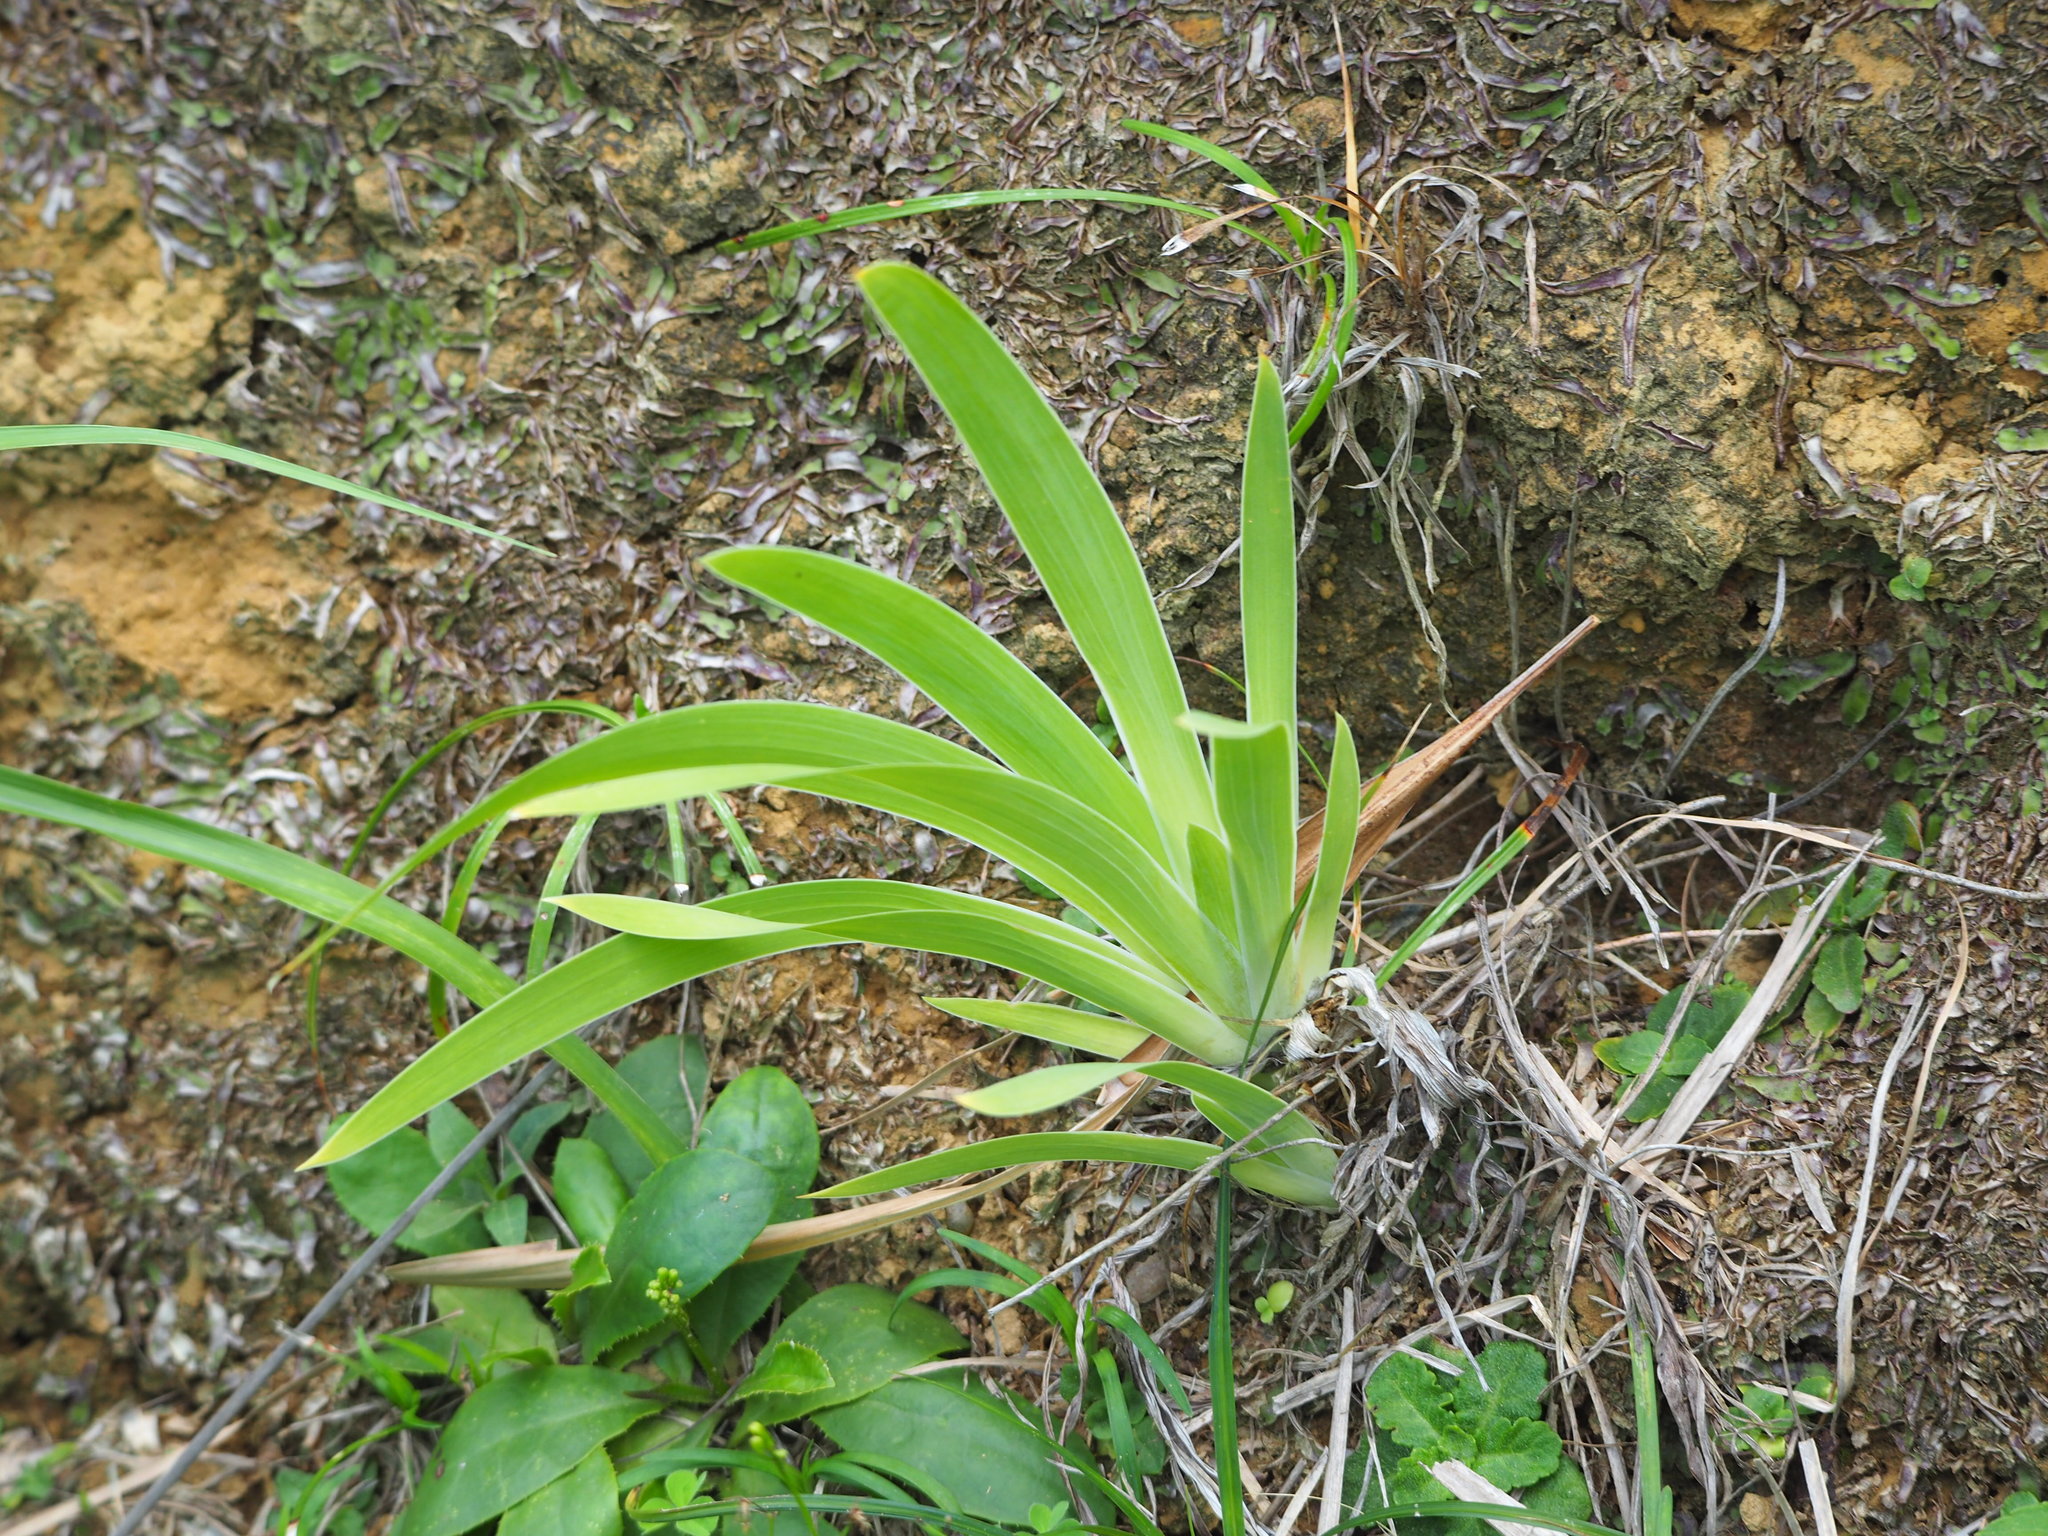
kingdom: Plantae
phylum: Tracheophyta
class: Liliopsida
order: Asparagales
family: Iridaceae
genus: Iris
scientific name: Iris domestica
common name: Belamcanda
